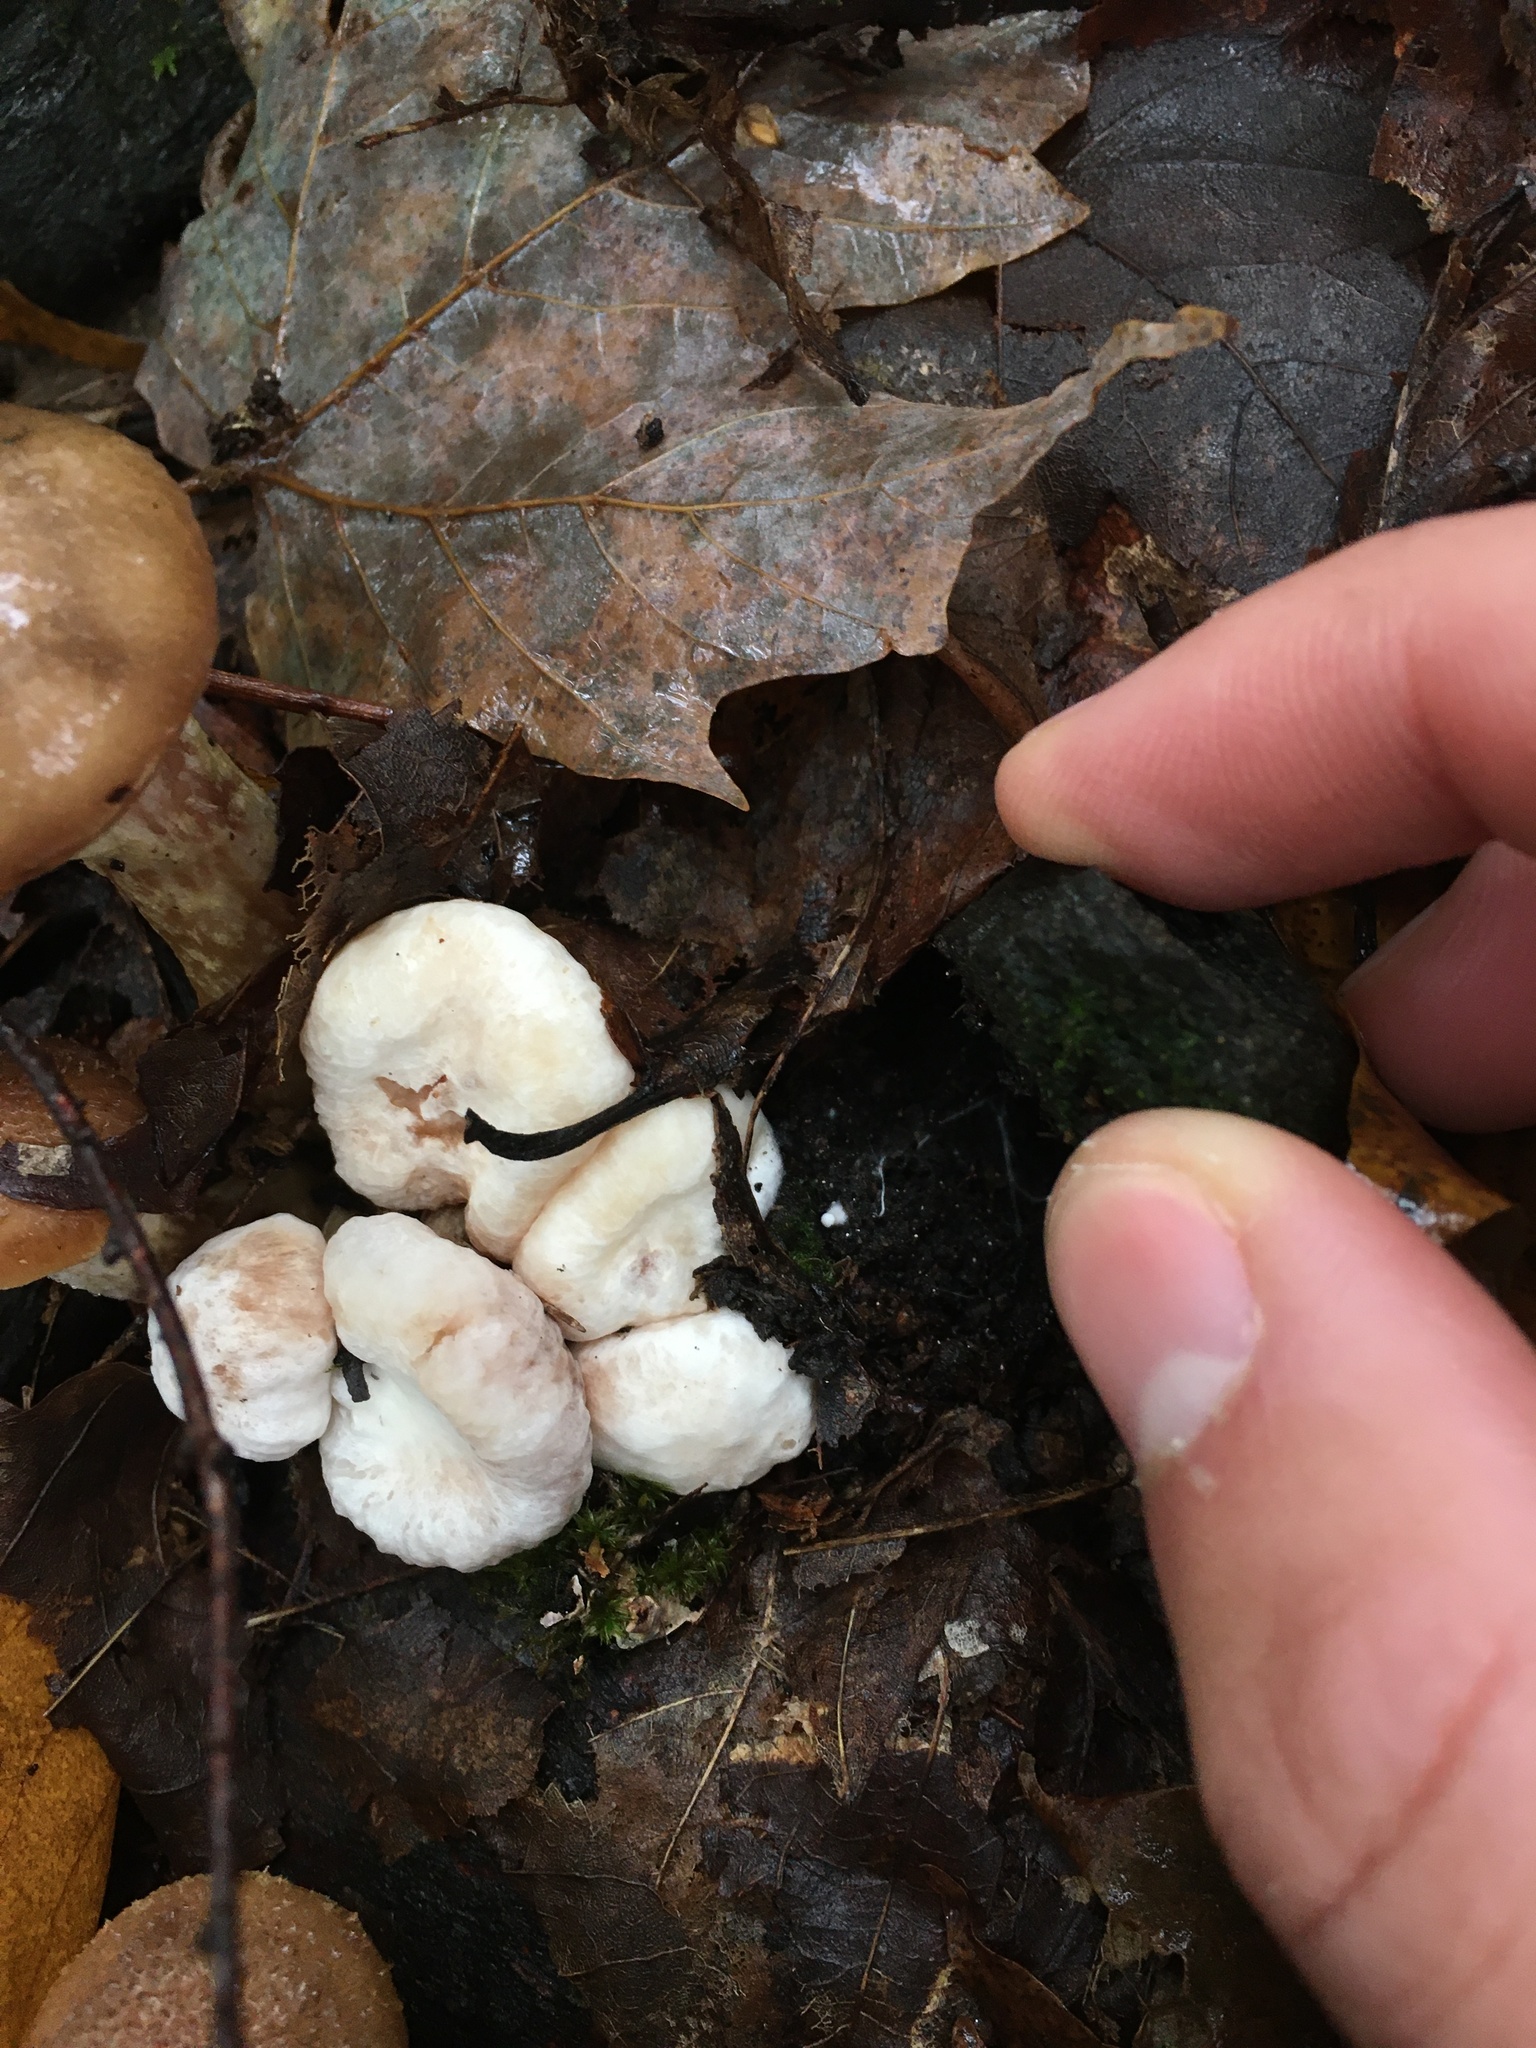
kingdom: Fungi
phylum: Basidiomycota
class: Agaricomycetes
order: Agaricales
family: Entolomataceae
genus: Entoloma
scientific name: Entoloma abortivum
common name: Aborted entoloma
